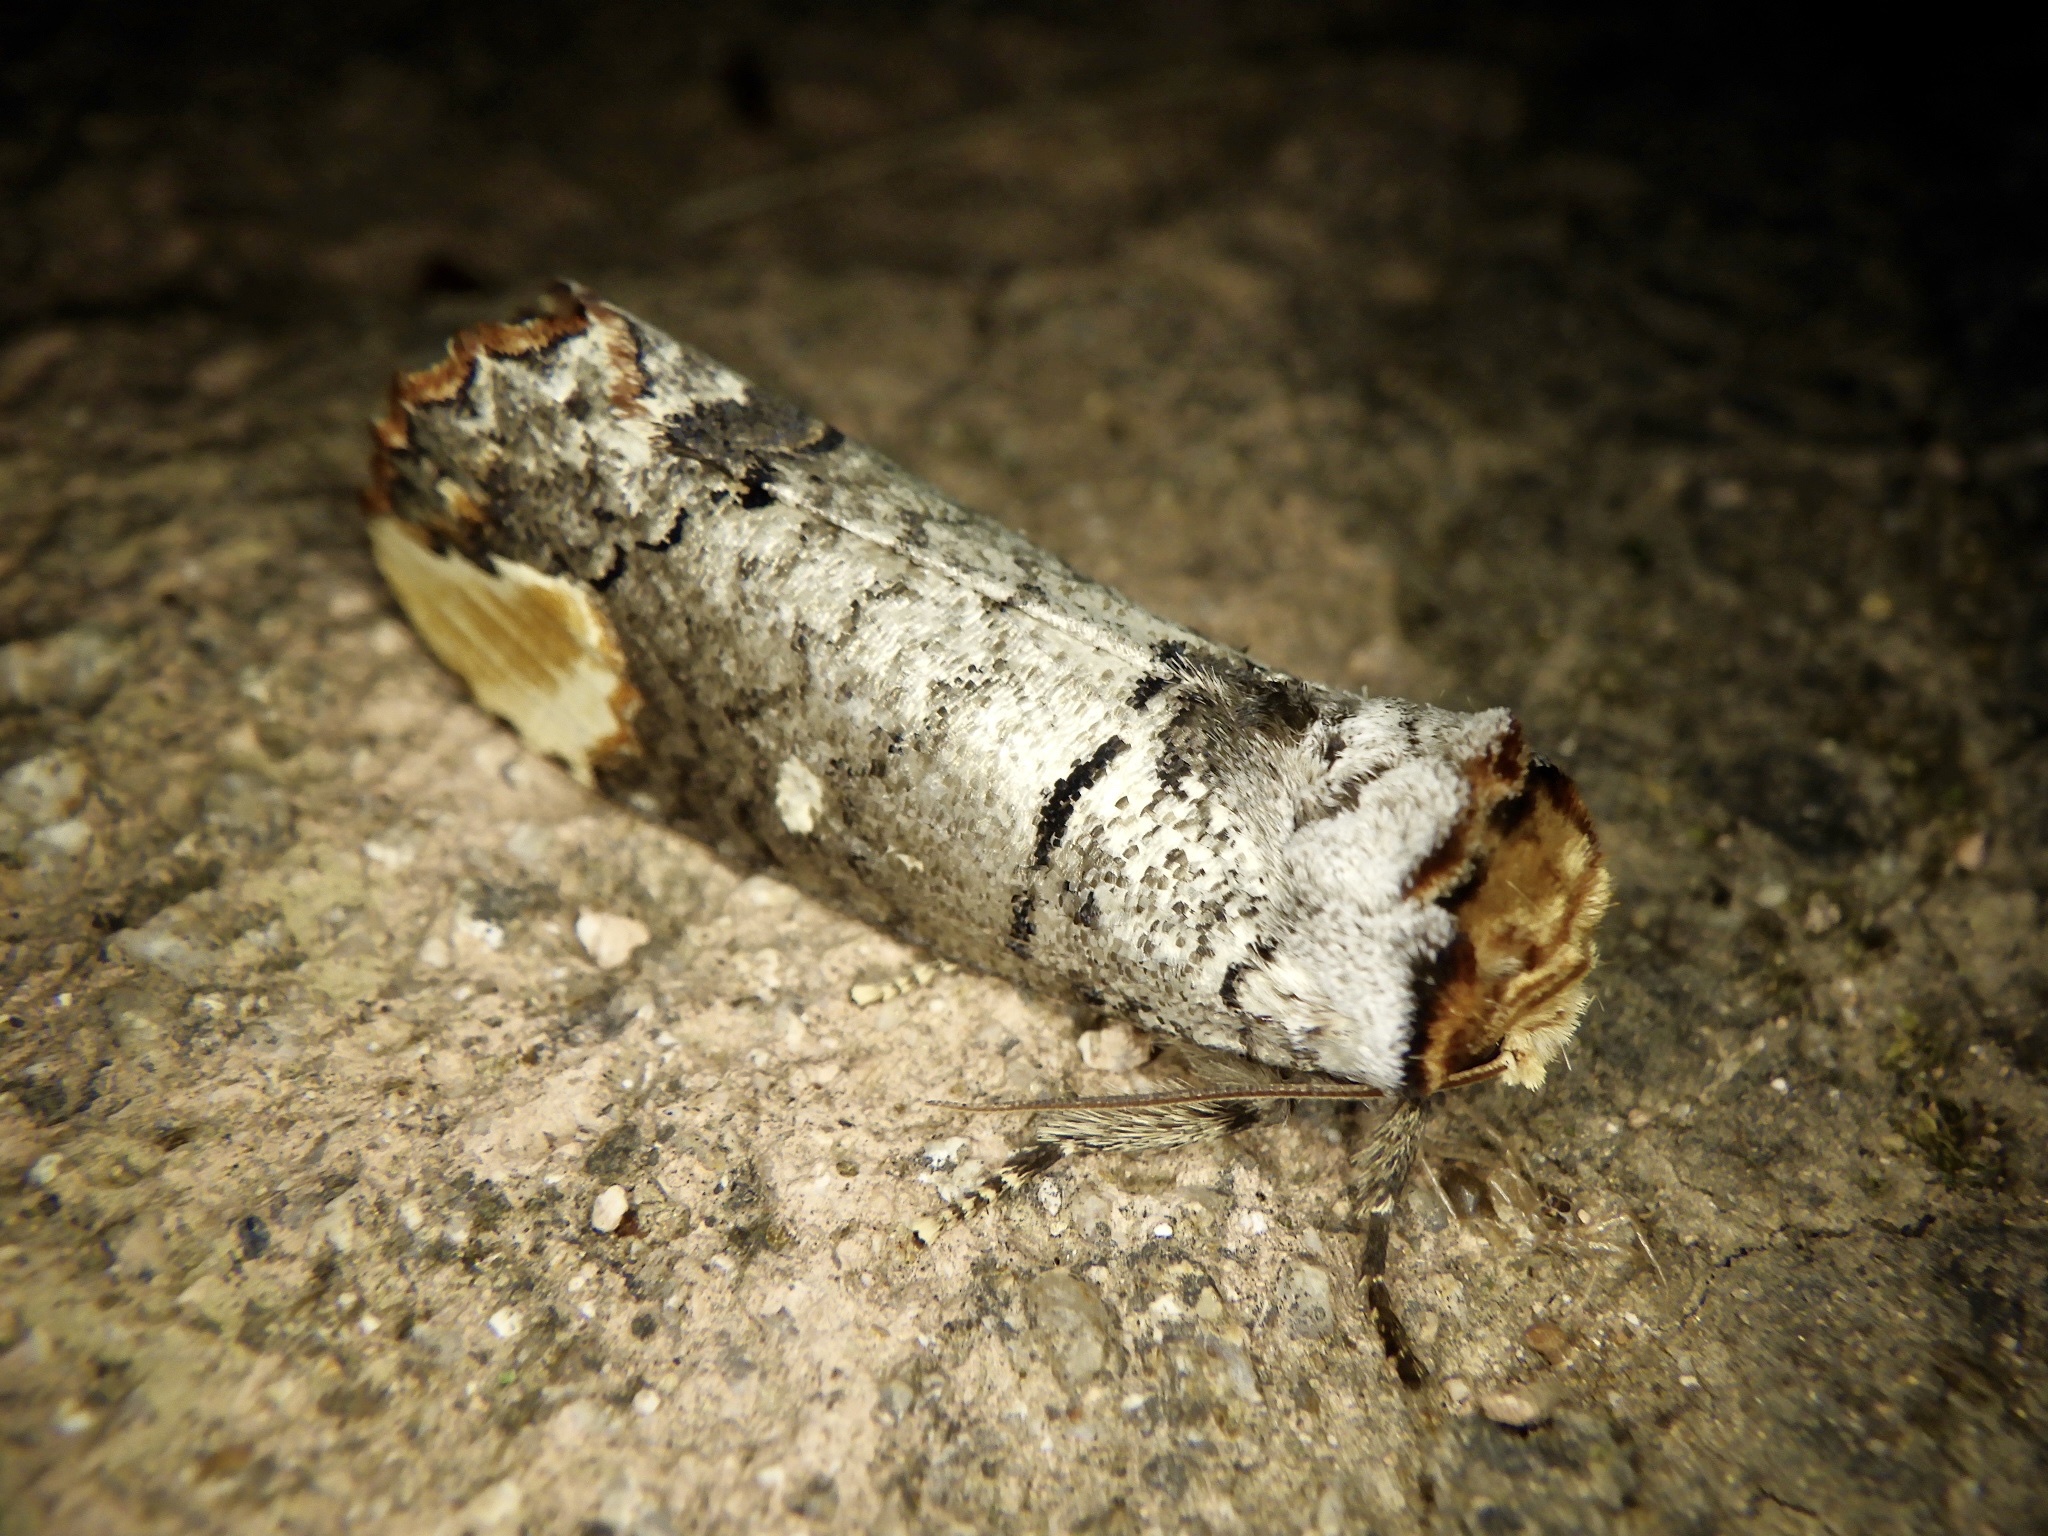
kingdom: Animalia
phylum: Arthropoda
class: Insecta
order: Lepidoptera
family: Notodontidae
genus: Phalera
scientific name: Phalera assimilis
